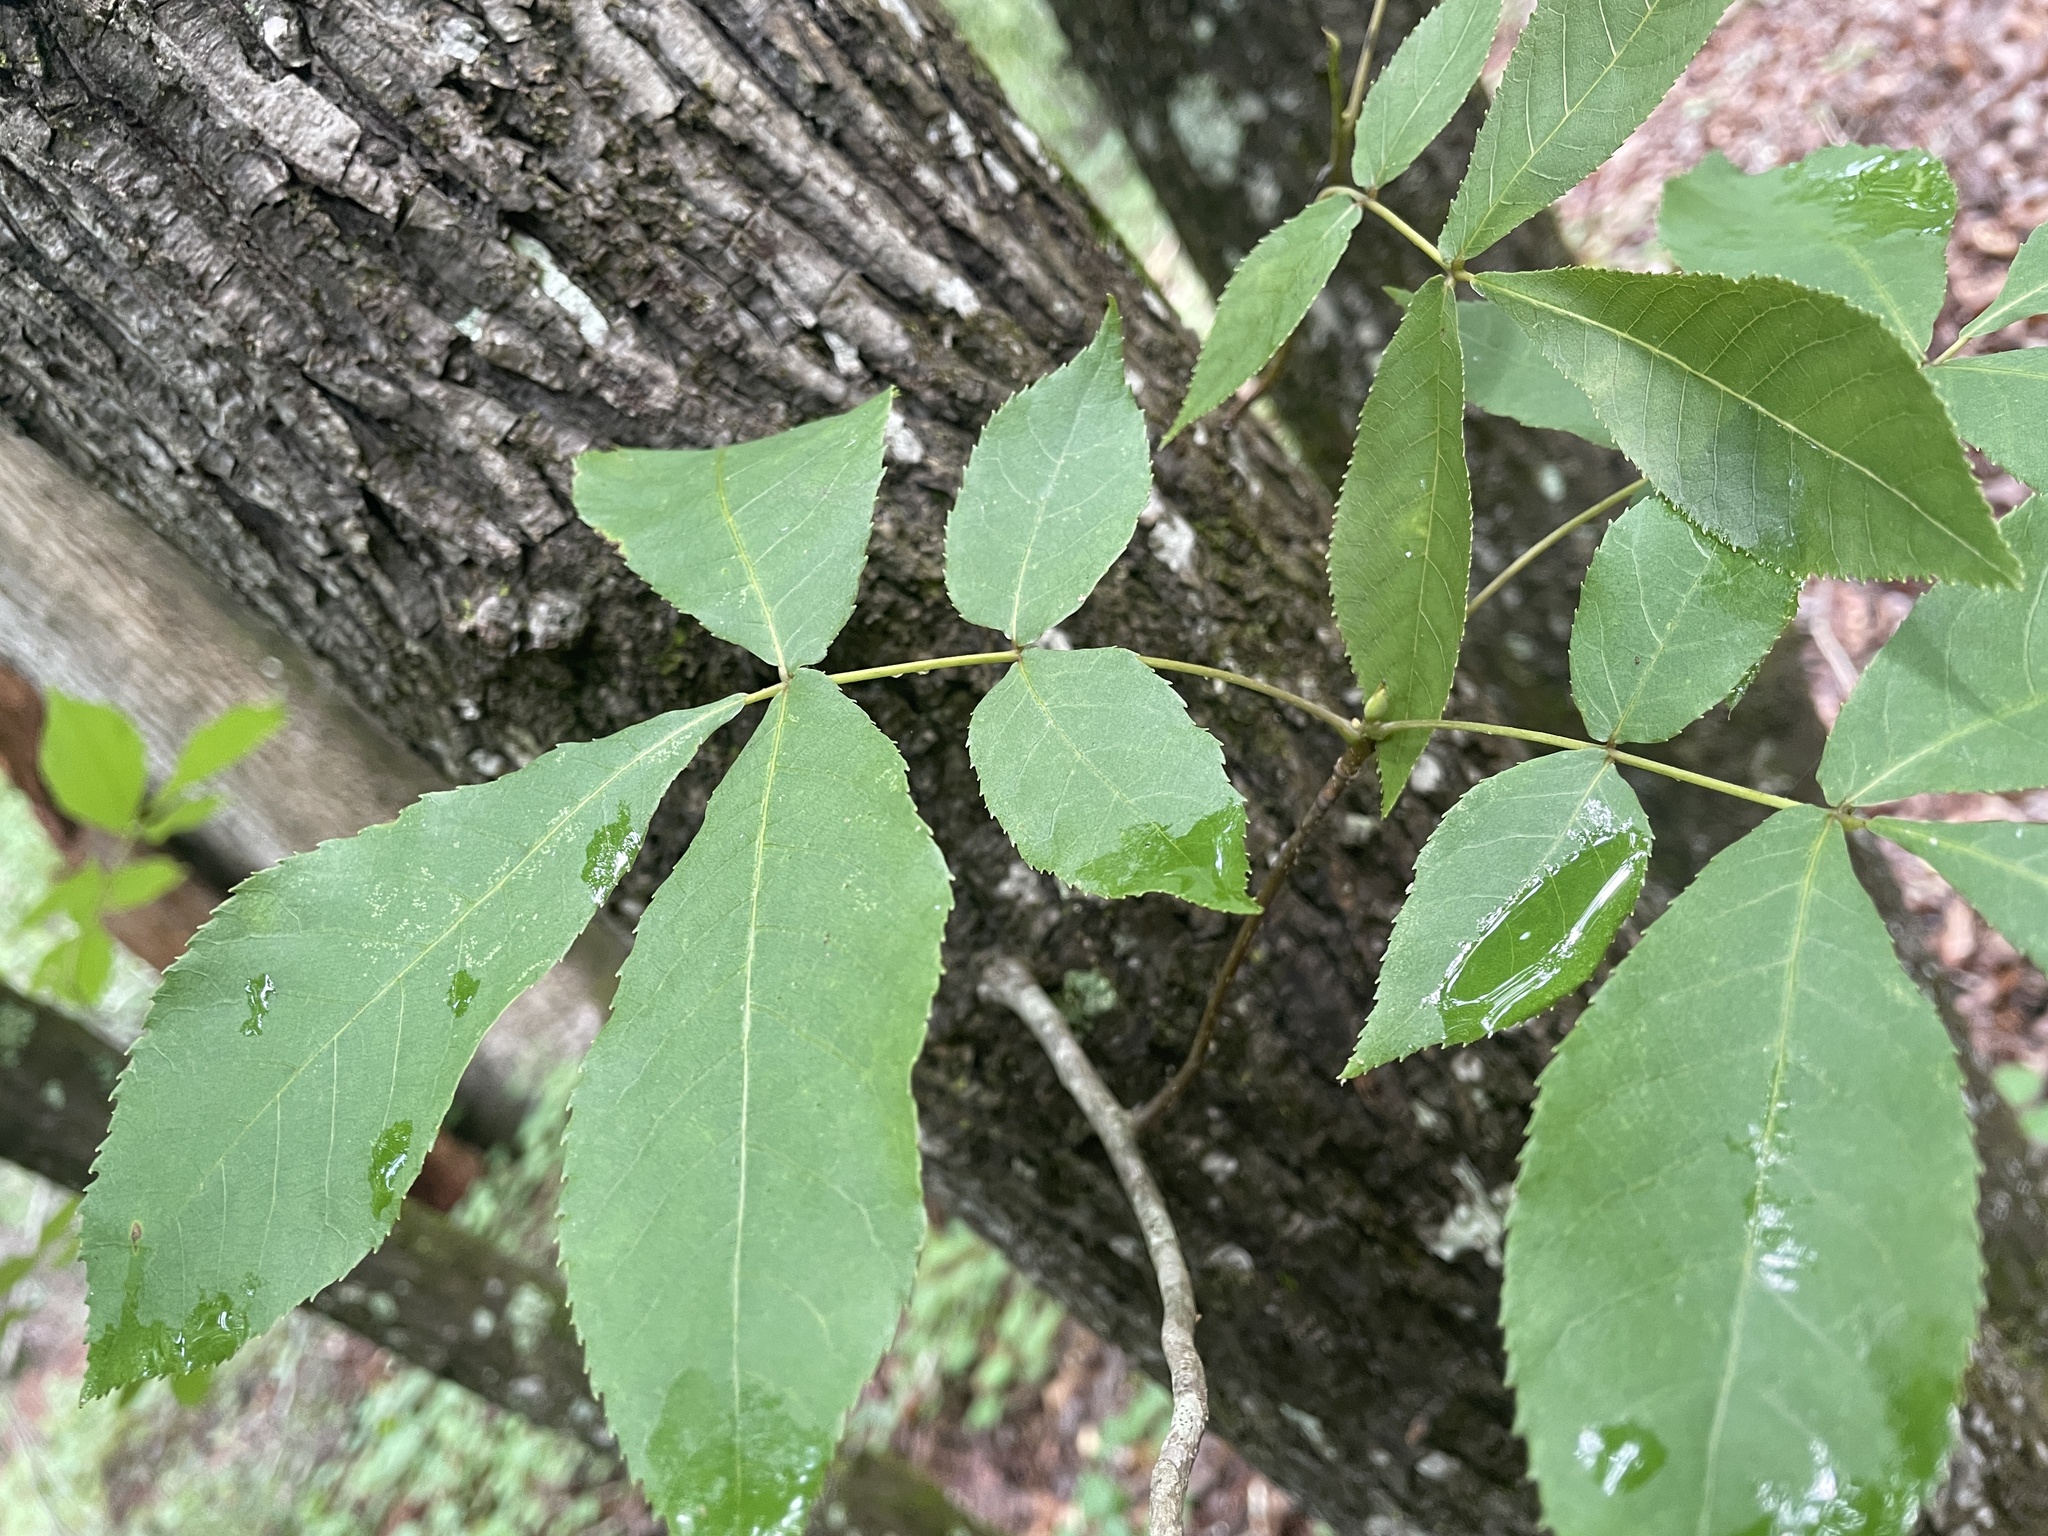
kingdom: Animalia
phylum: Arthropoda
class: Insecta
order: Diptera
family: Cecidomyiidae
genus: Caryomyia
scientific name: Caryomyia caryaecola
